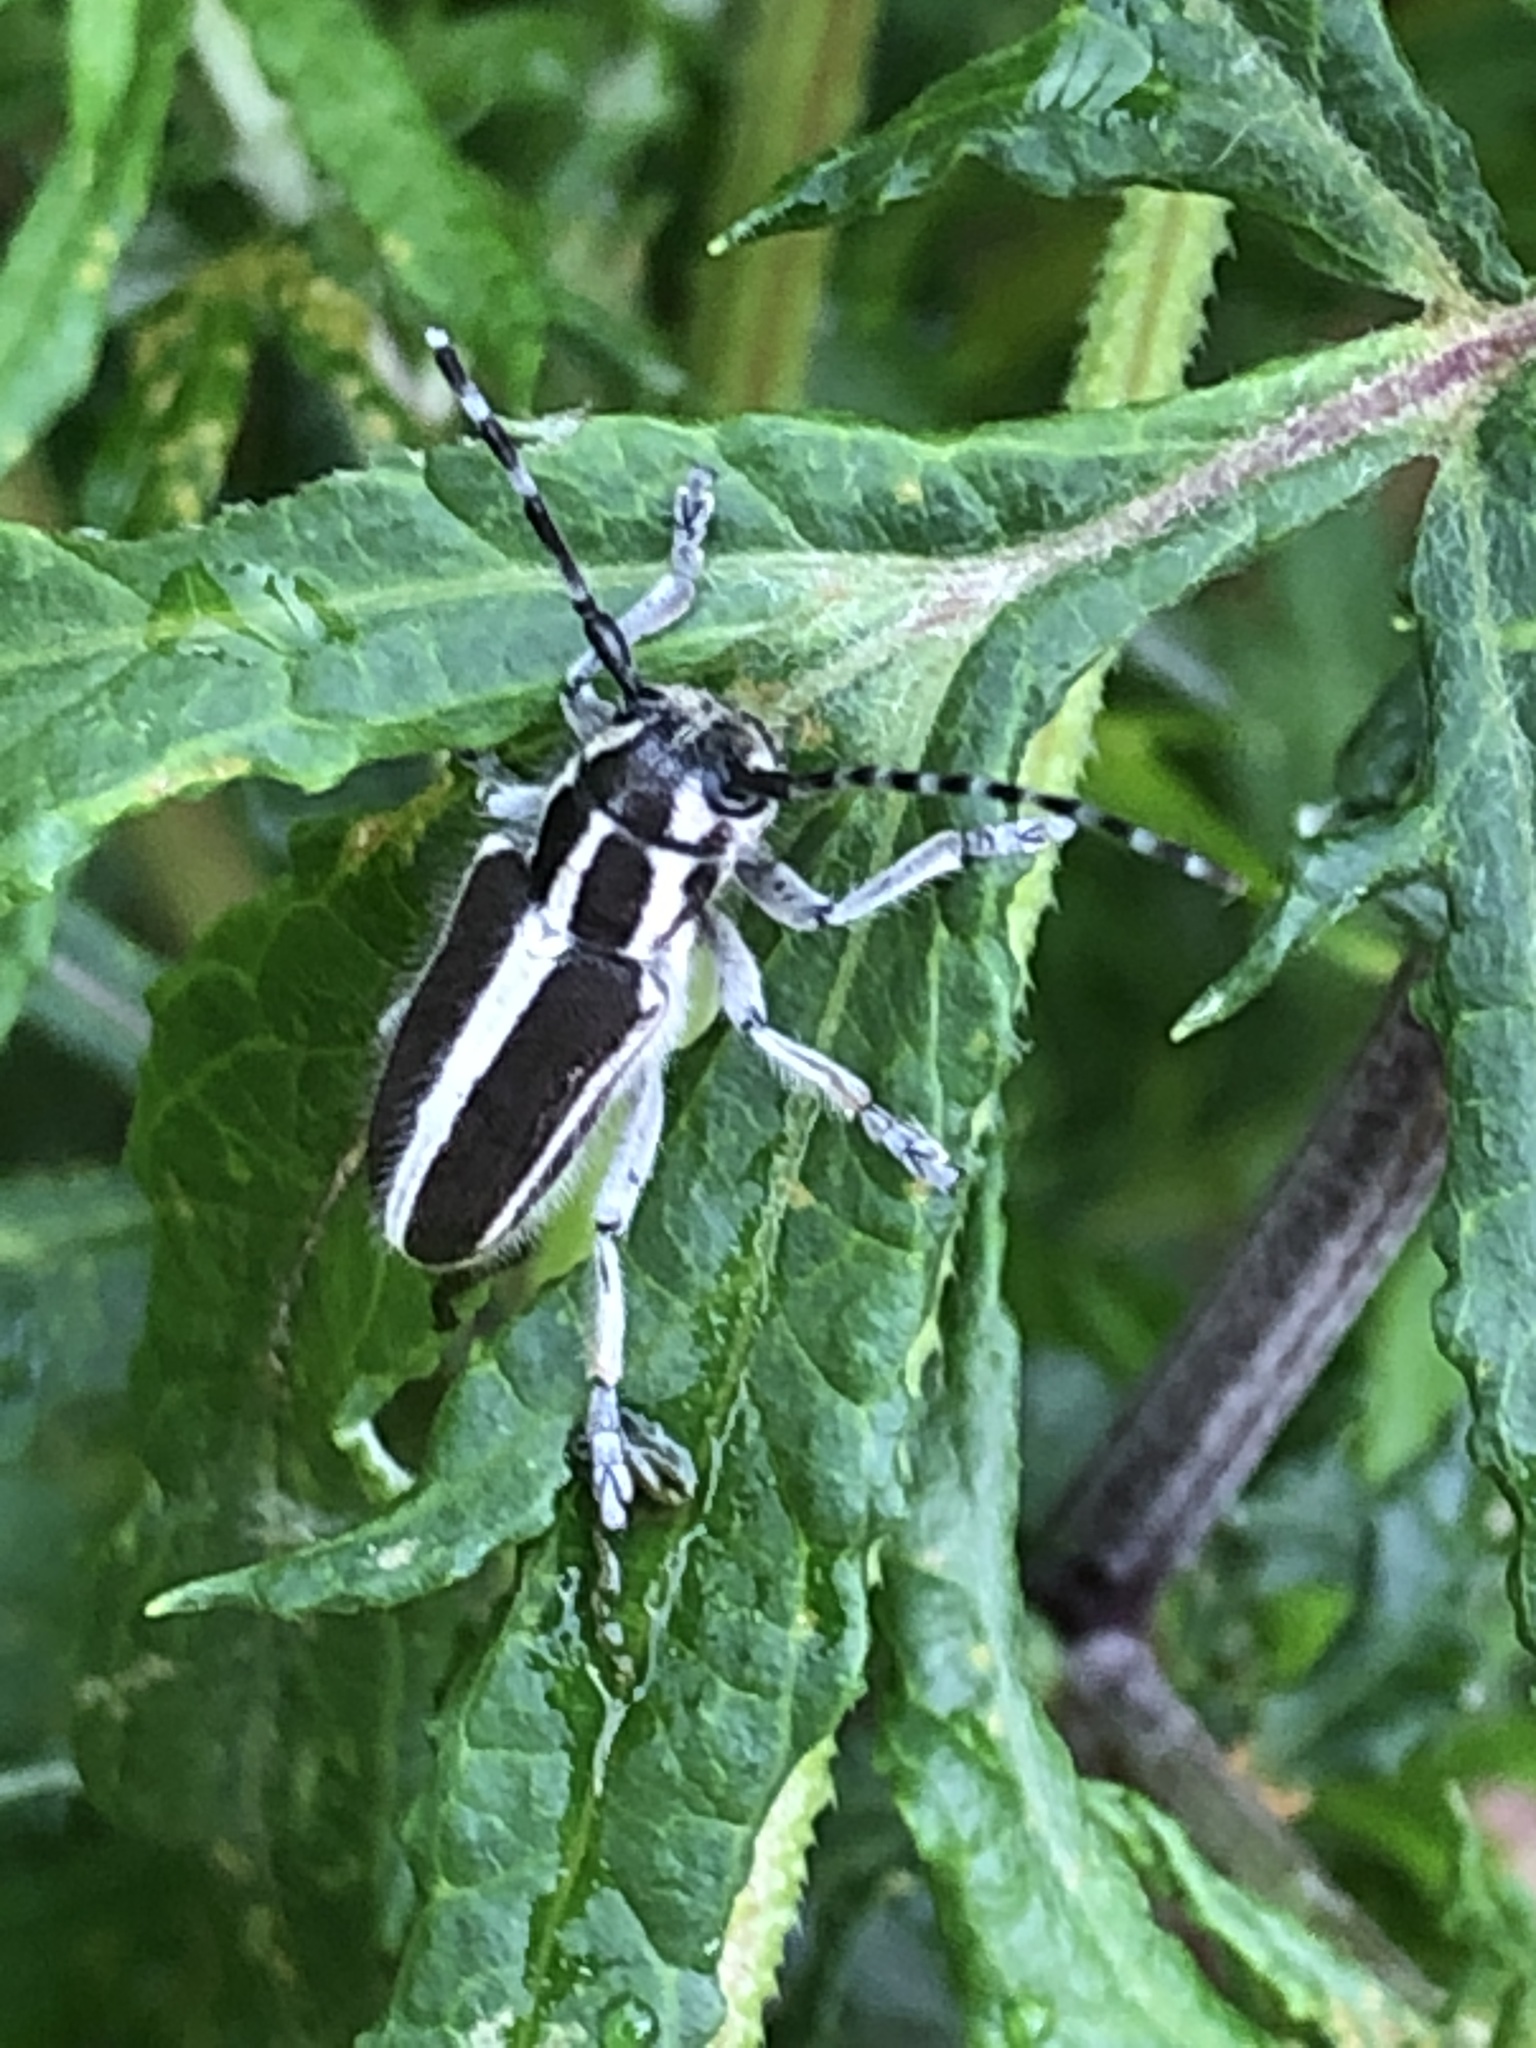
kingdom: Animalia
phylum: Arthropoda
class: Insecta
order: Coleoptera
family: Cerambycidae
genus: Thyestilla
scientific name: Thyestilla gebleri
